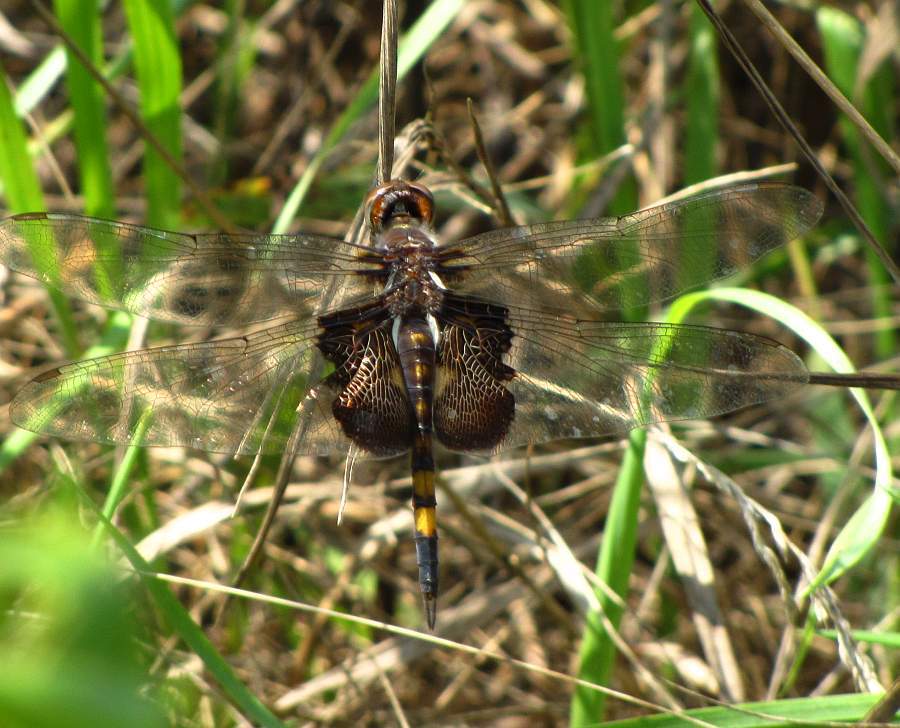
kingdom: Animalia
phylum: Arthropoda
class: Insecta
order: Odonata
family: Libellulidae
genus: Tramea
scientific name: Tramea lacerata
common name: Black saddlebags
